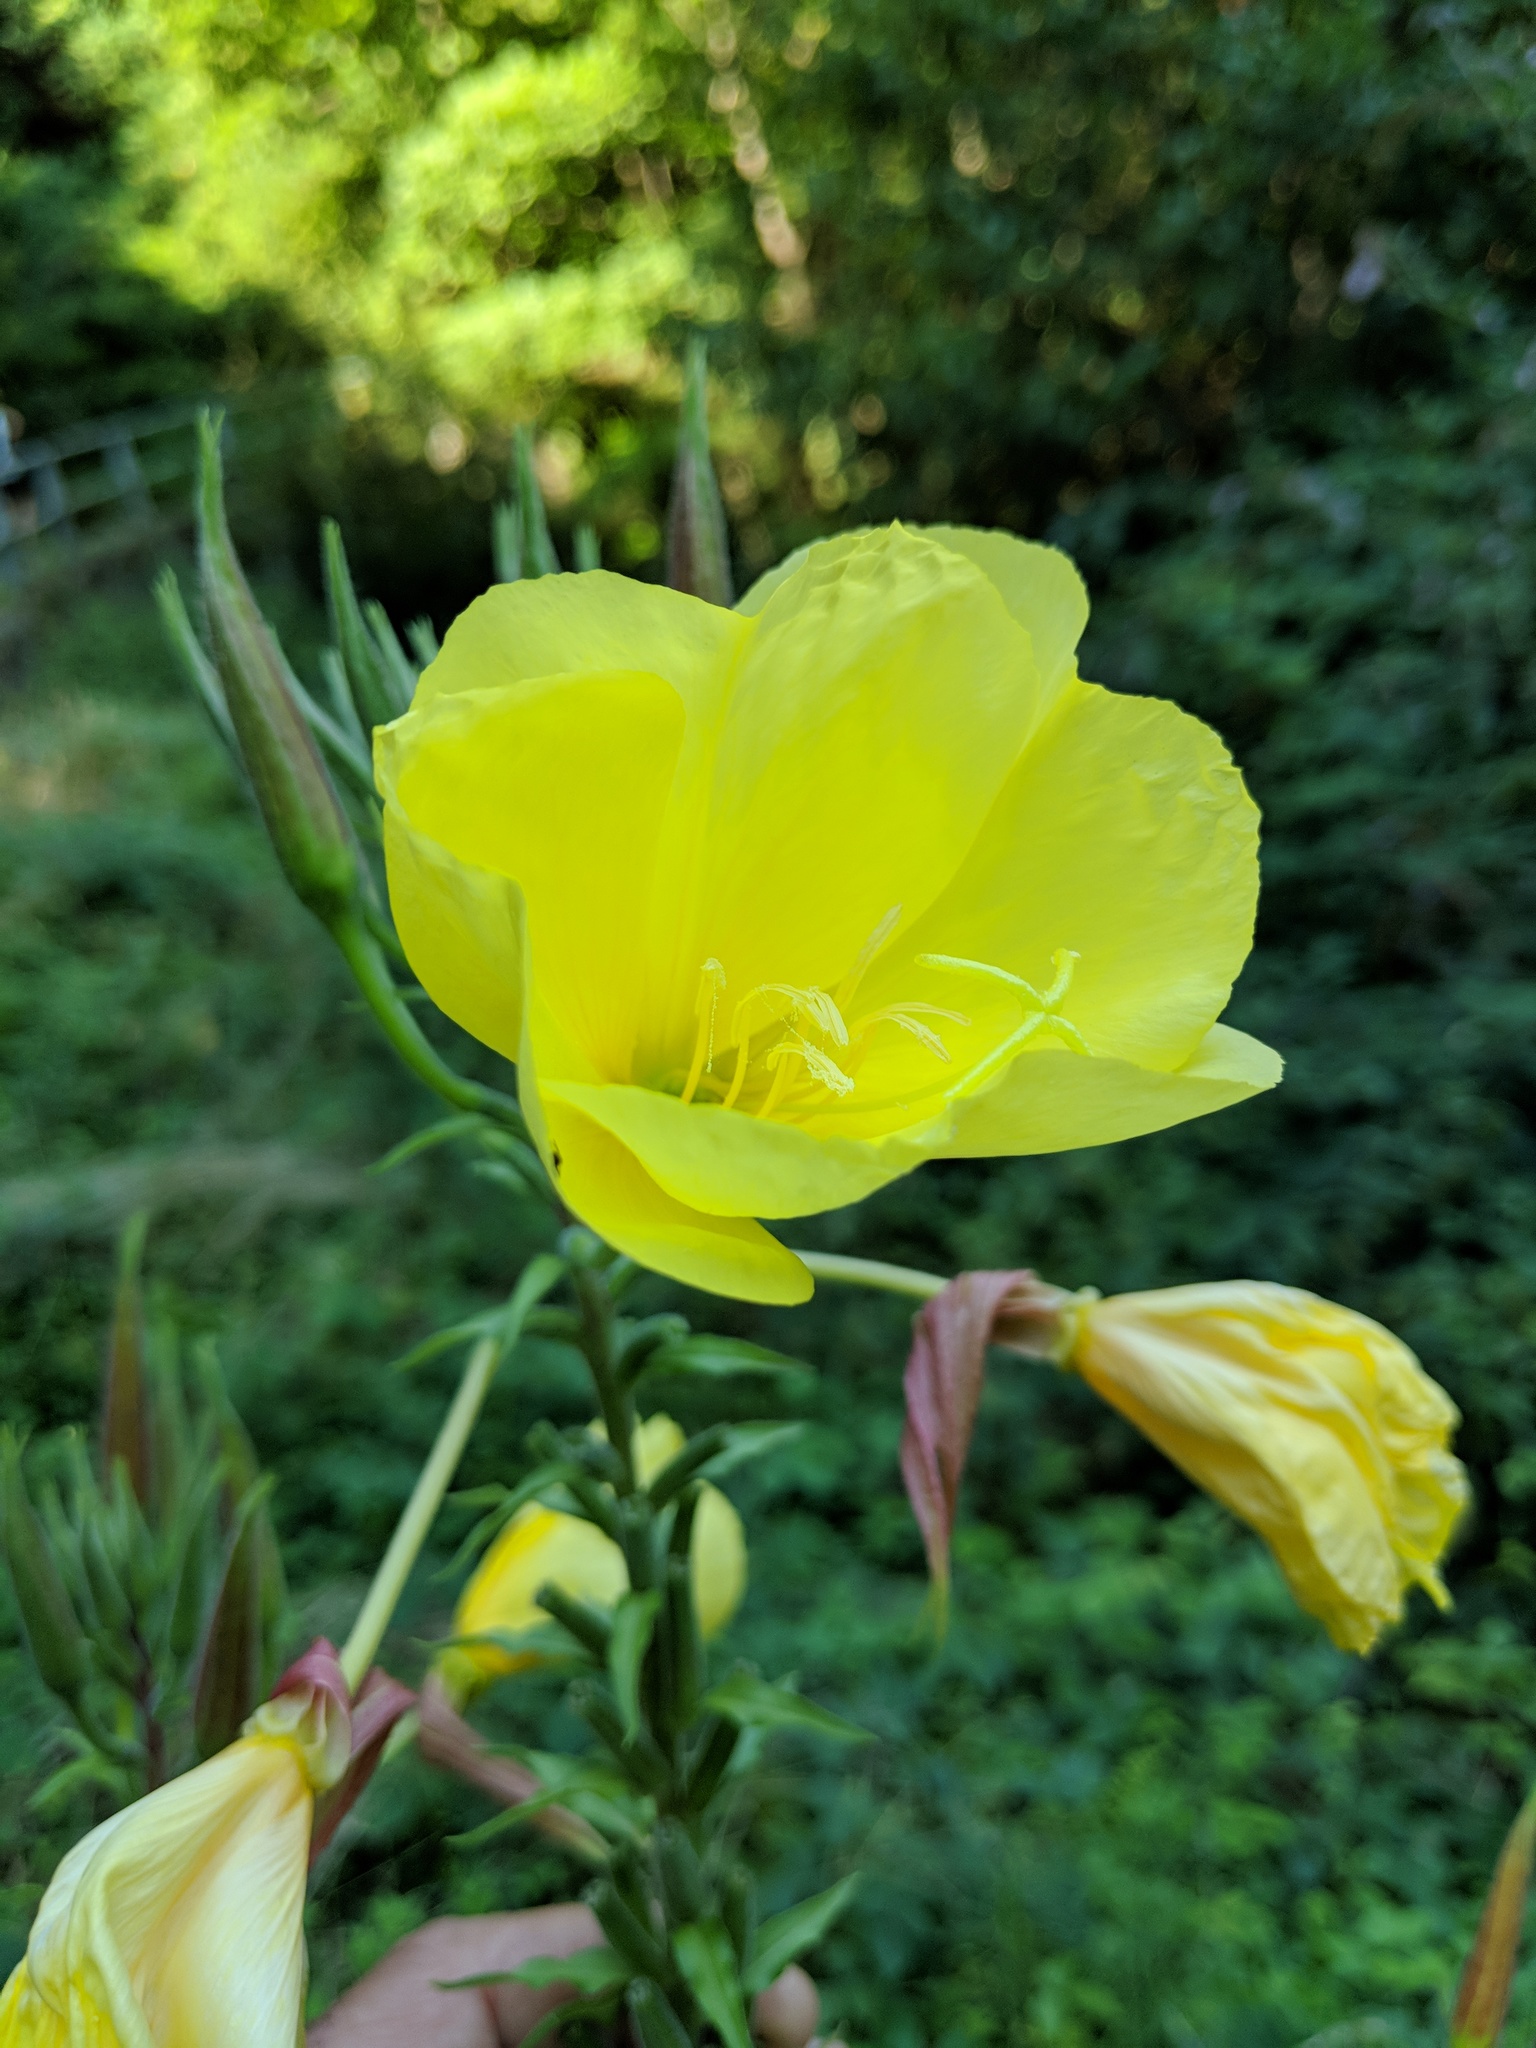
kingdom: Plantae
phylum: Tracheophyta
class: Magnoliopsida
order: Myrtales
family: Onagraceae
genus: Oenothera
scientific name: Oenothera glazioviana
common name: Large-flowered evening-primrose
